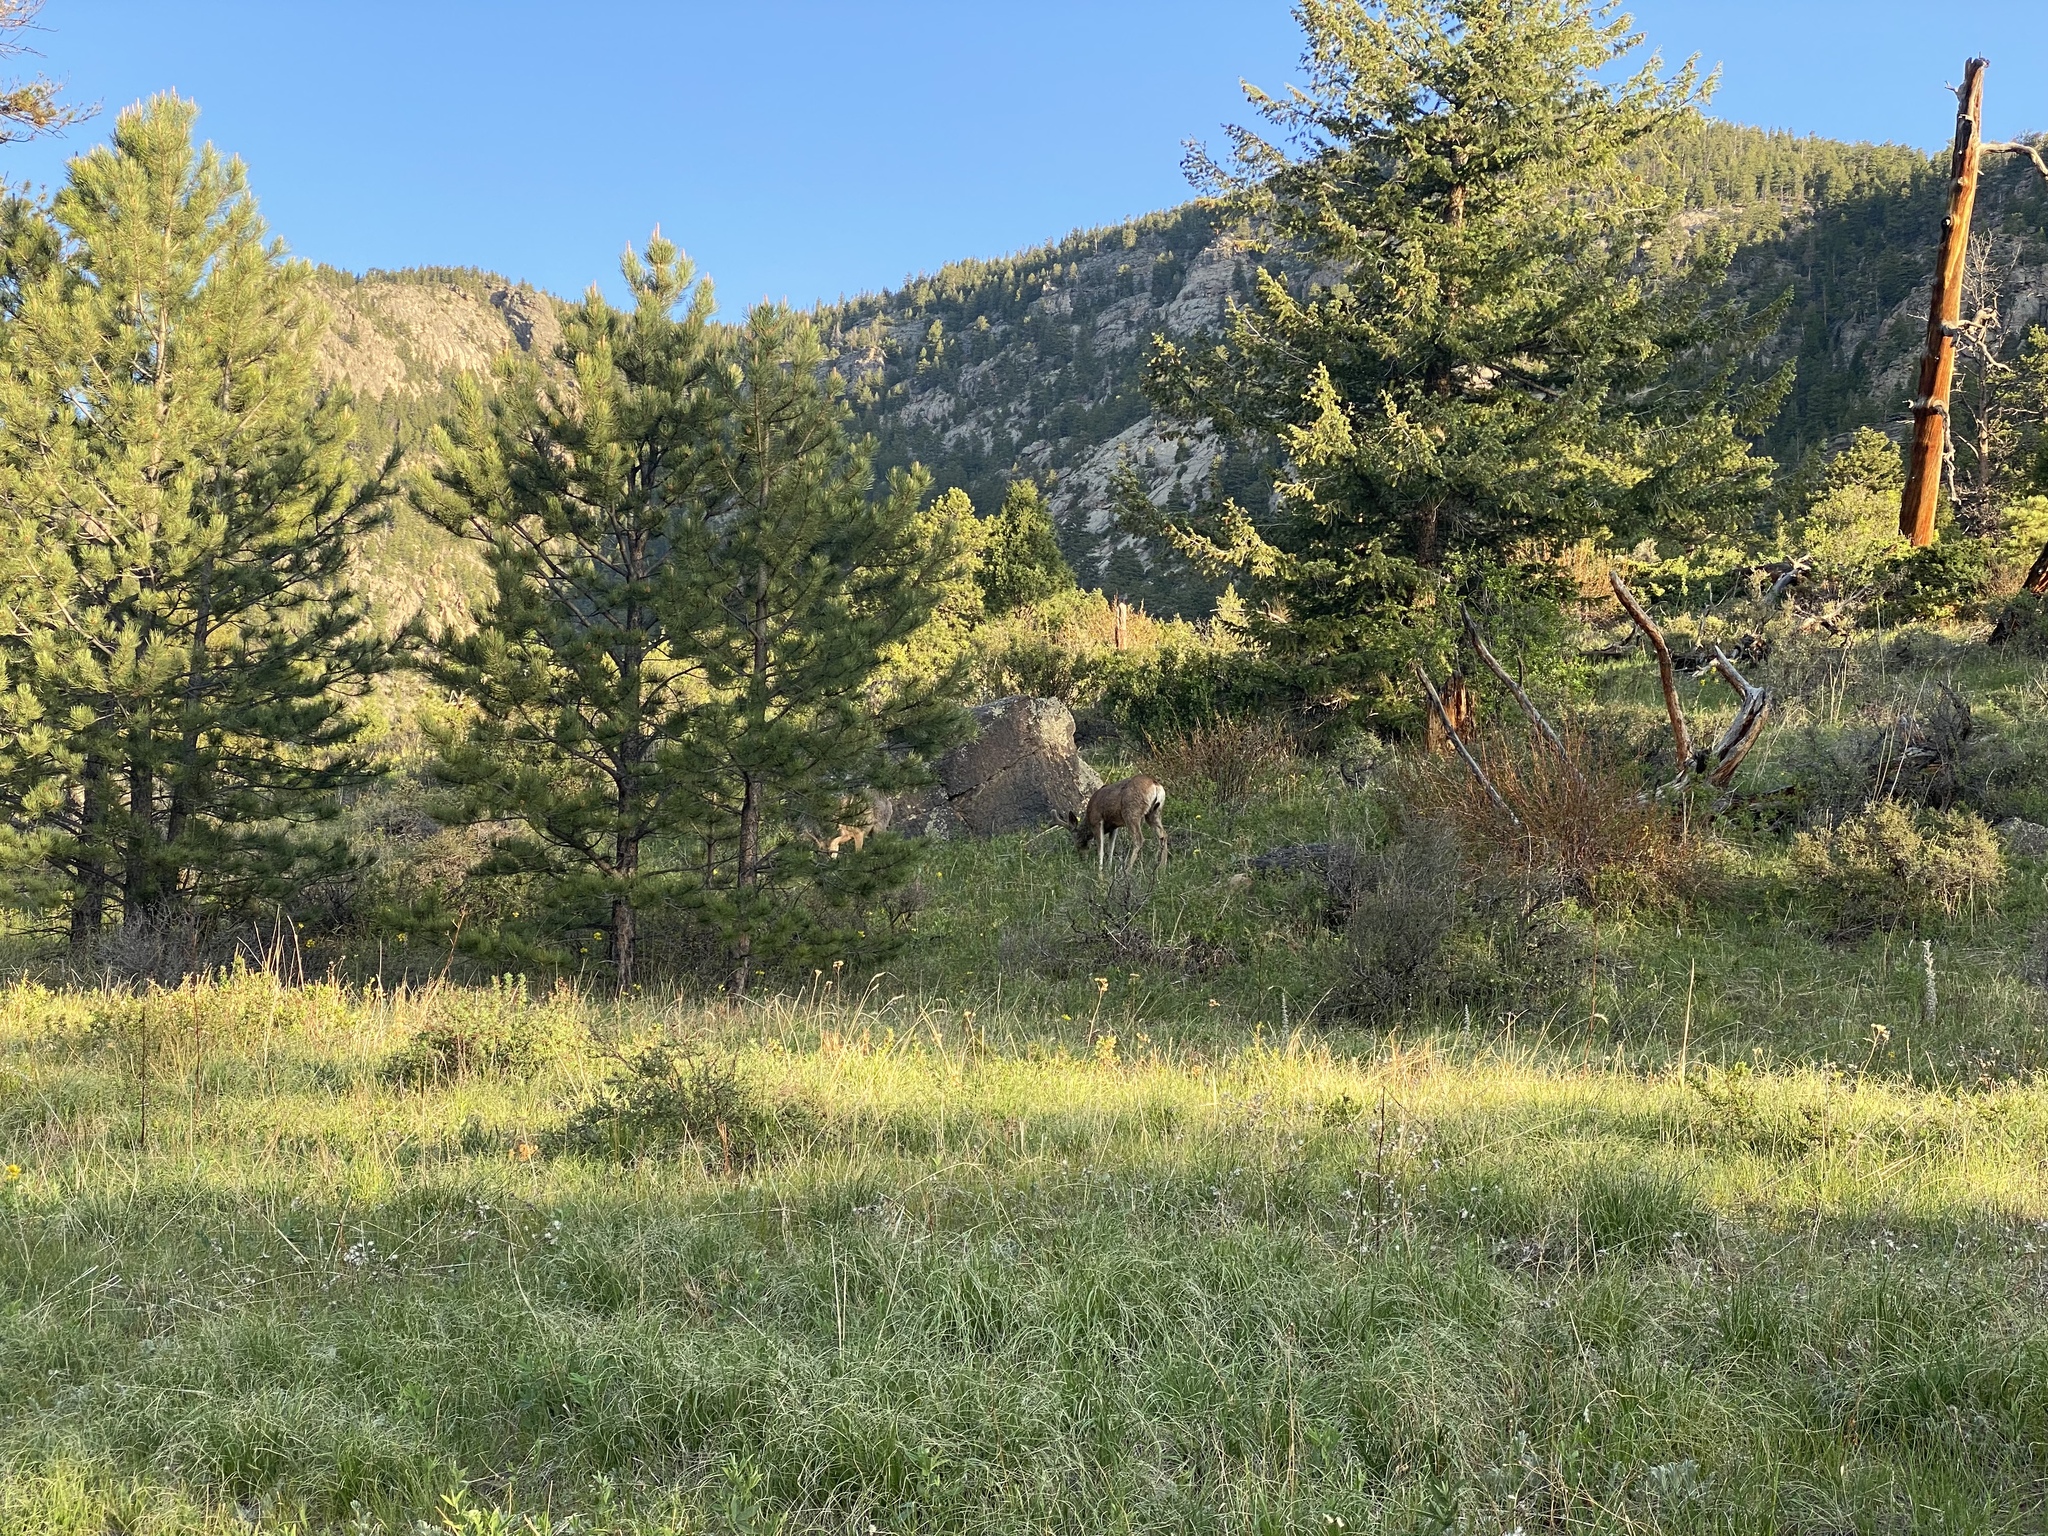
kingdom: Animalia
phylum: Chordata
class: Mammalia
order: Artiodactyla
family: Cervidae
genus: Odocoileus
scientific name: Odocoileus hemionus
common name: Mule deer
